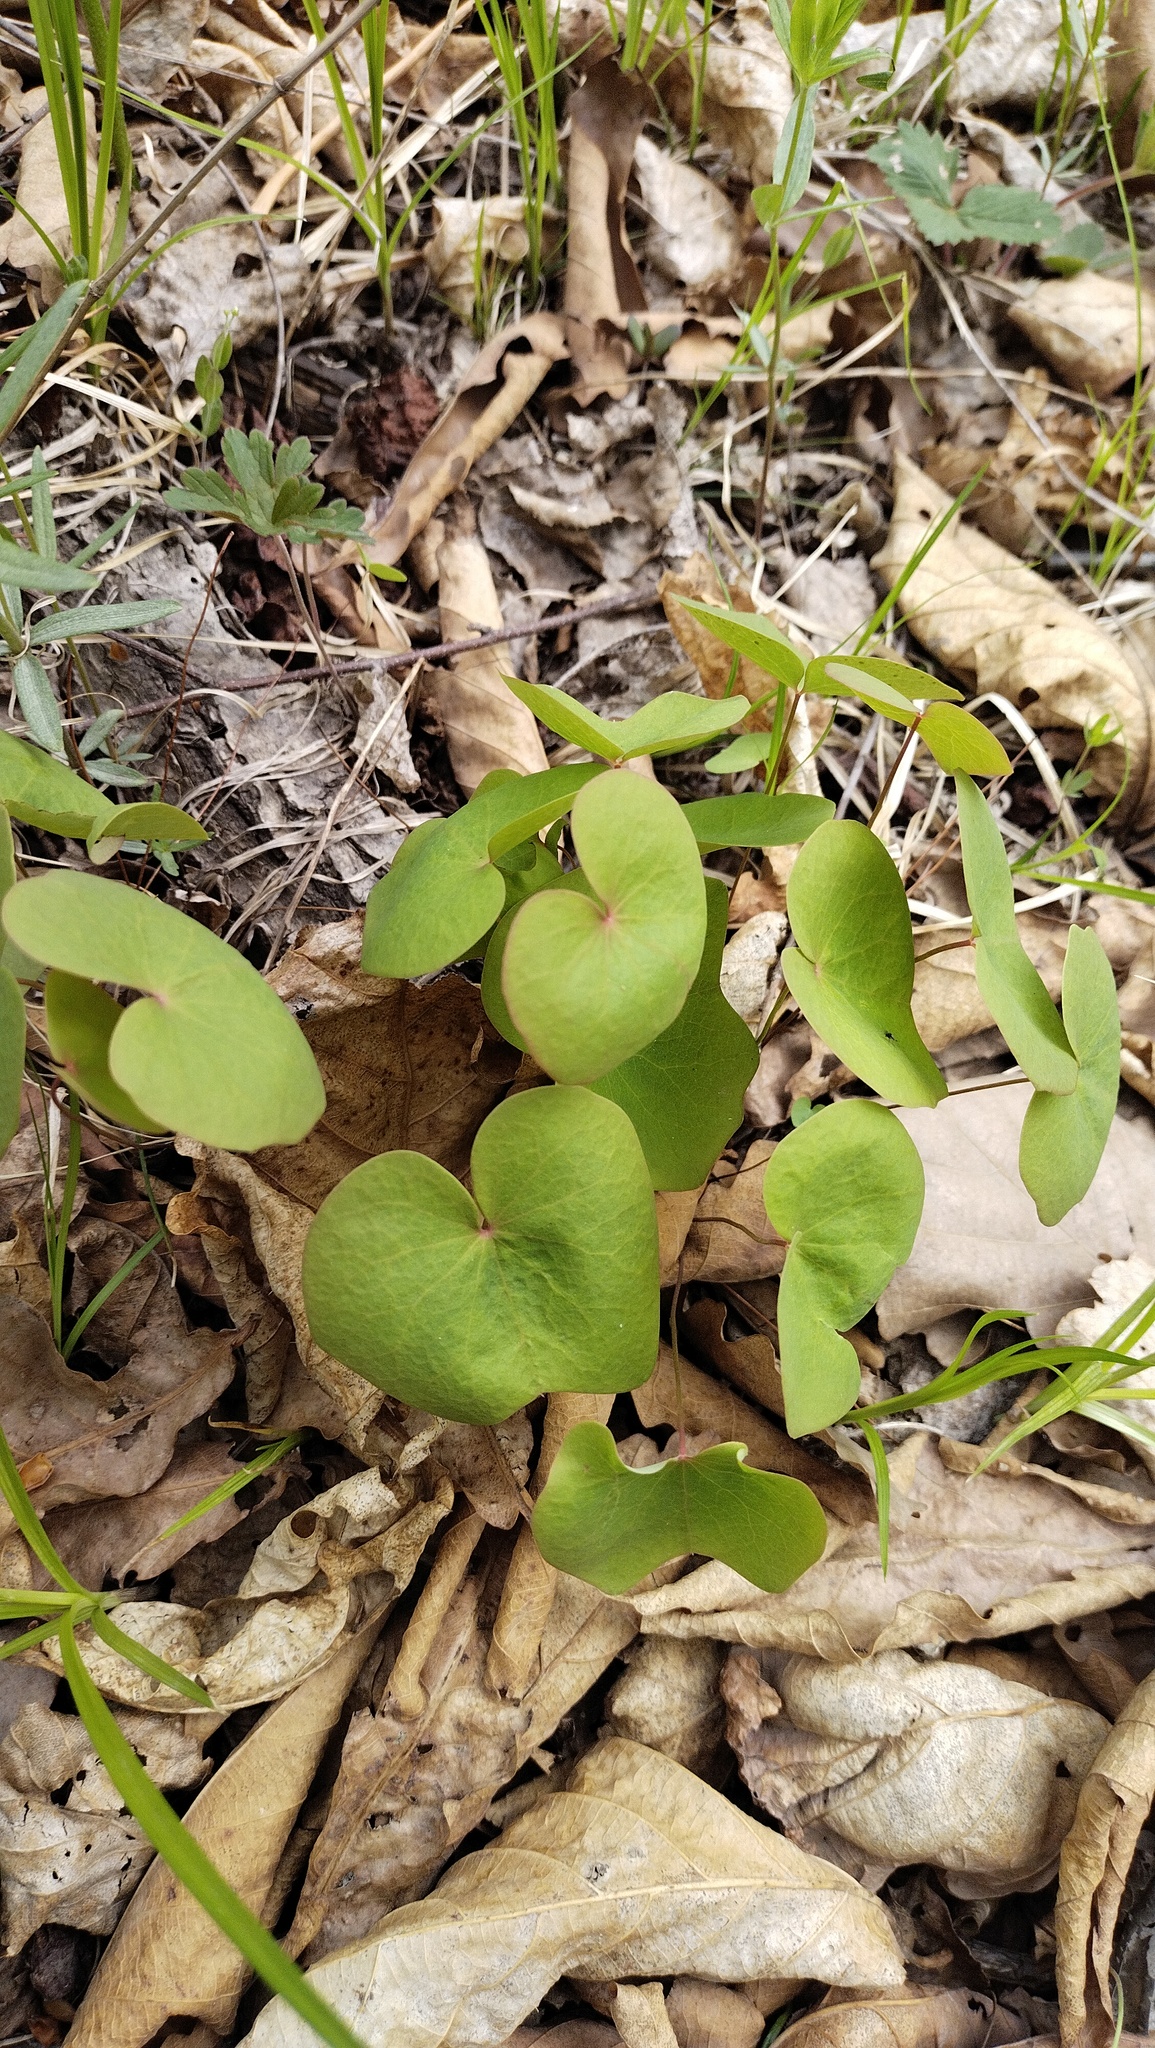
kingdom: Plantae
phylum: Tracheophyta
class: Magnoliopsida
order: Ranunculales
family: Berberidaceae
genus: Plagiorhegma
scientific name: Plagiorhegma dubium
